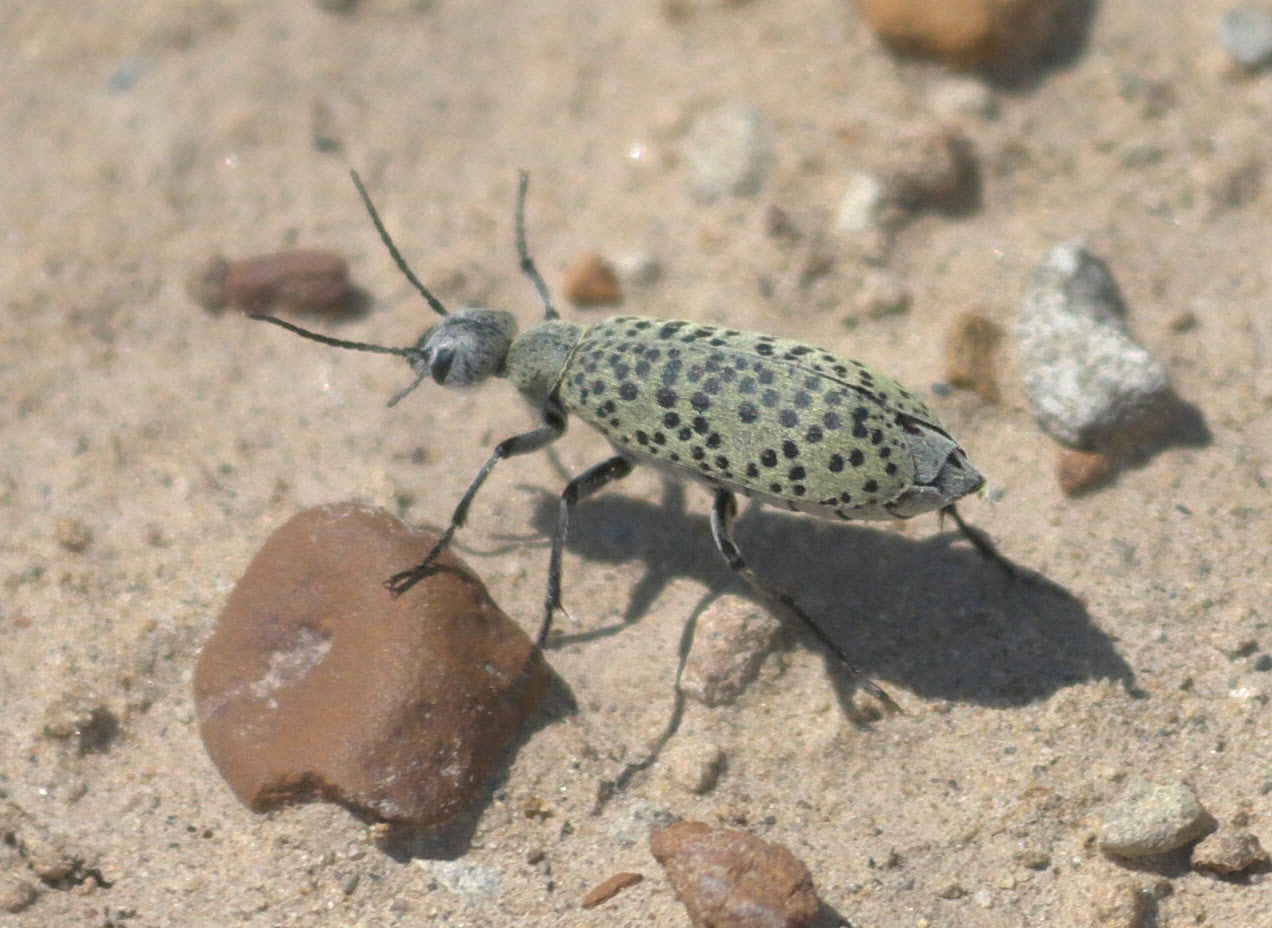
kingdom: Animalia
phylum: Arthropoda
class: Insecta
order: Coleoptera
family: Meloidae
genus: Epicauta
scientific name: Epicauta ventralis
